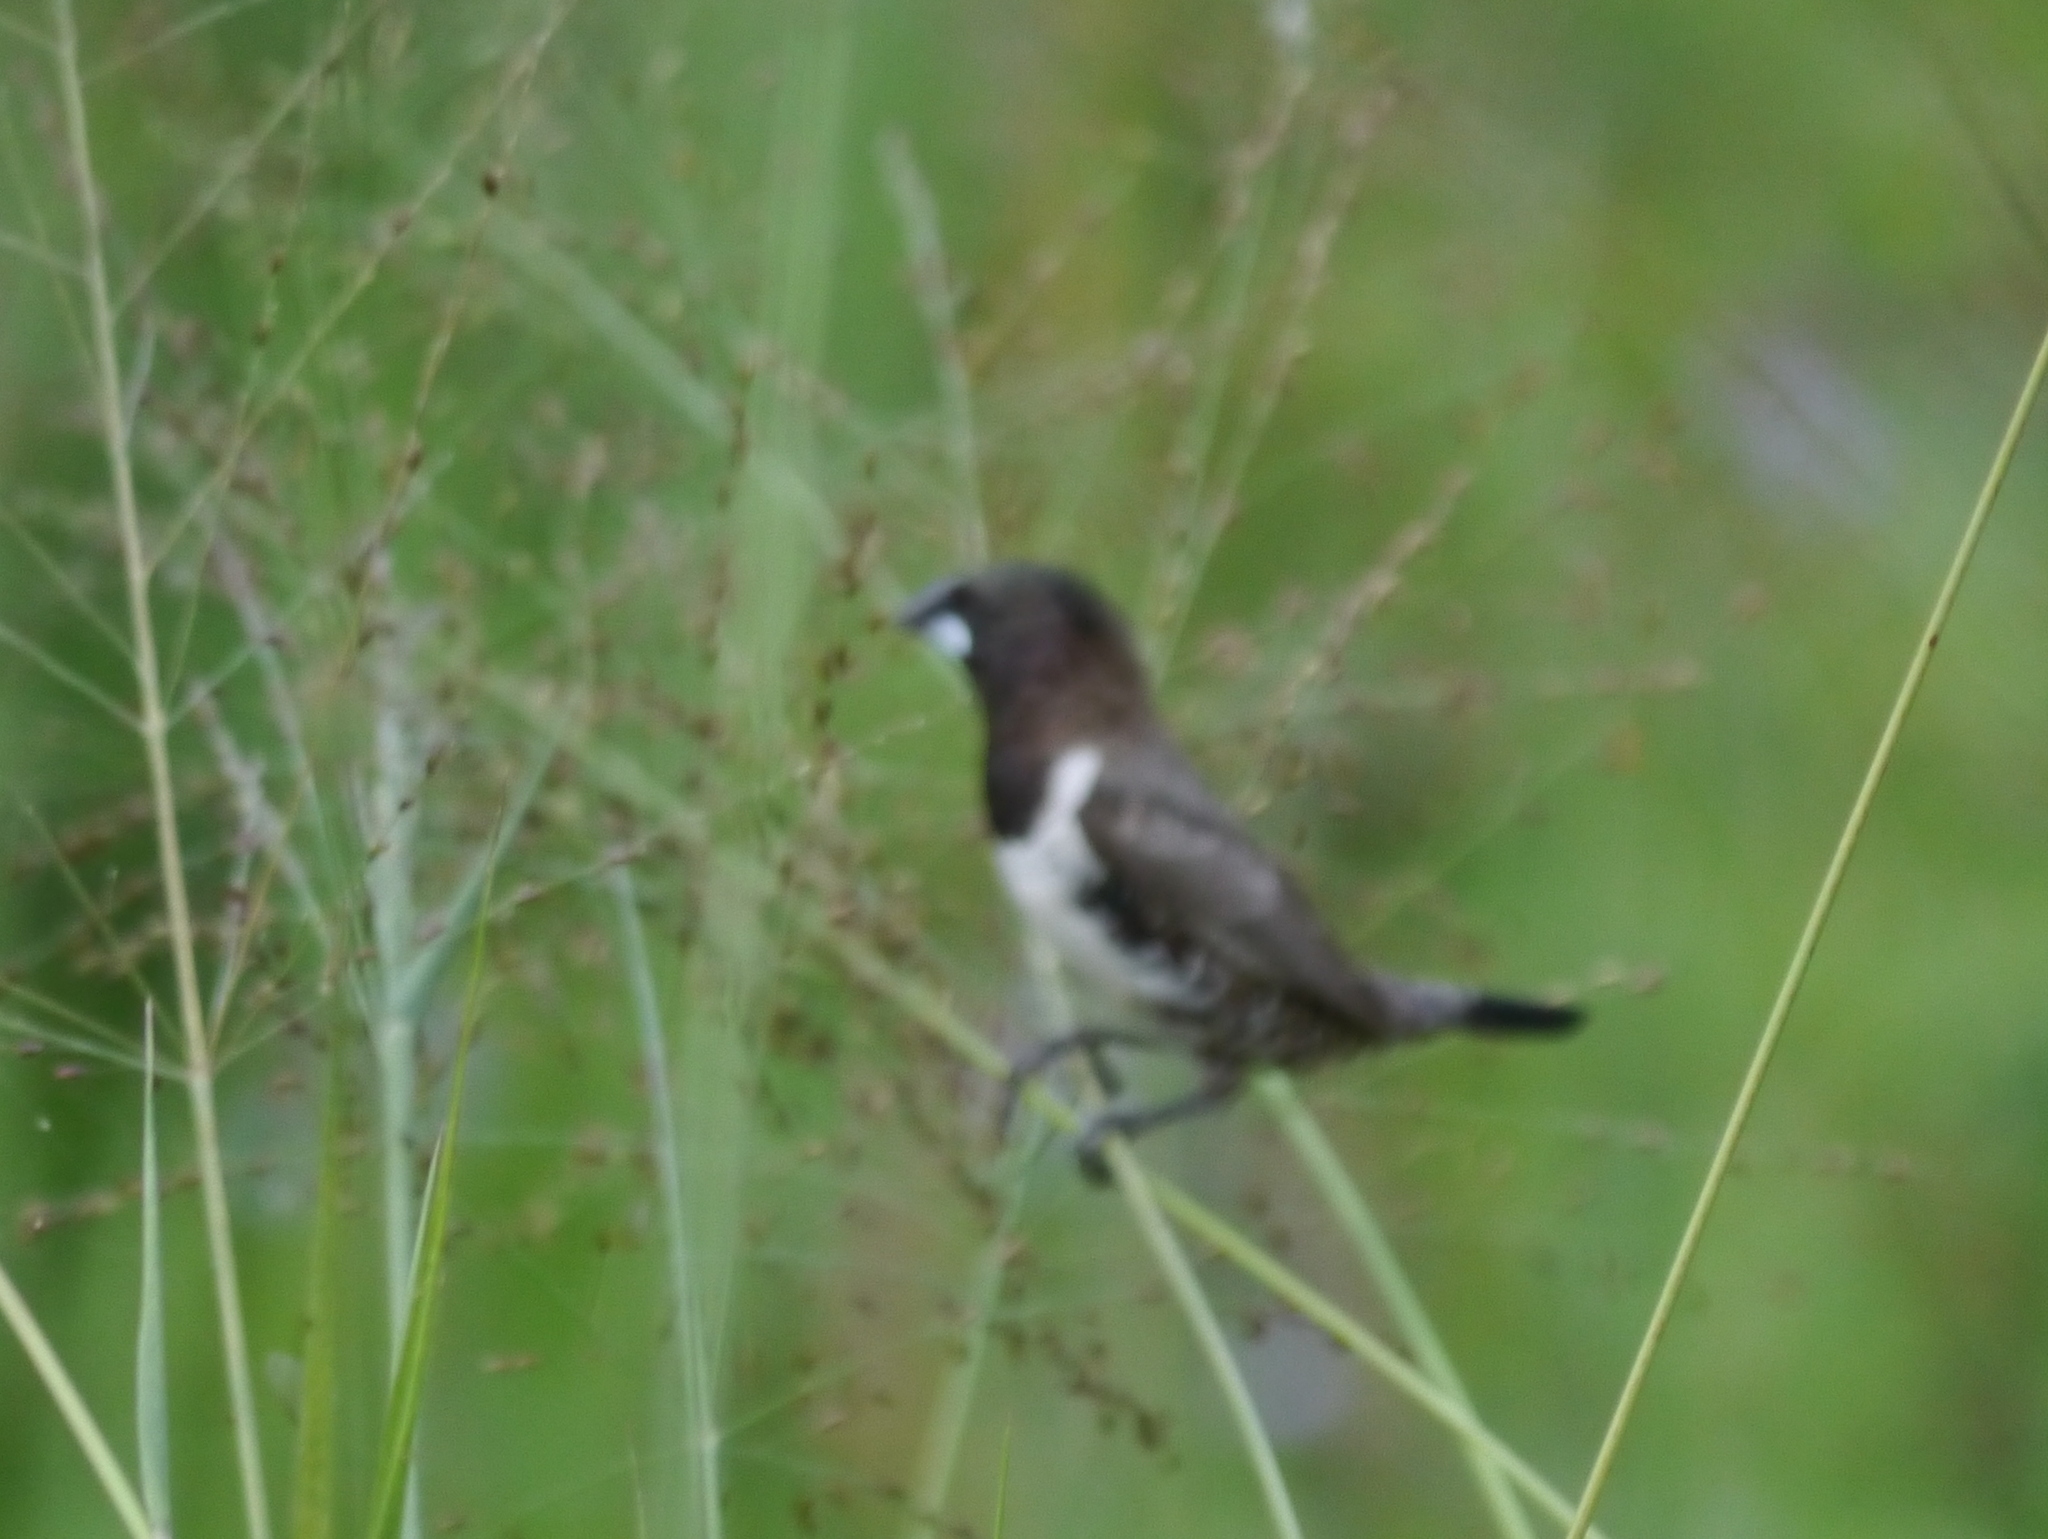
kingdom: Animalia
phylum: Chordata
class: Aves
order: Passeriformes
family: Estrildidae
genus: Lonchura
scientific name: Lonchura cucullata
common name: Bronze mannikin
